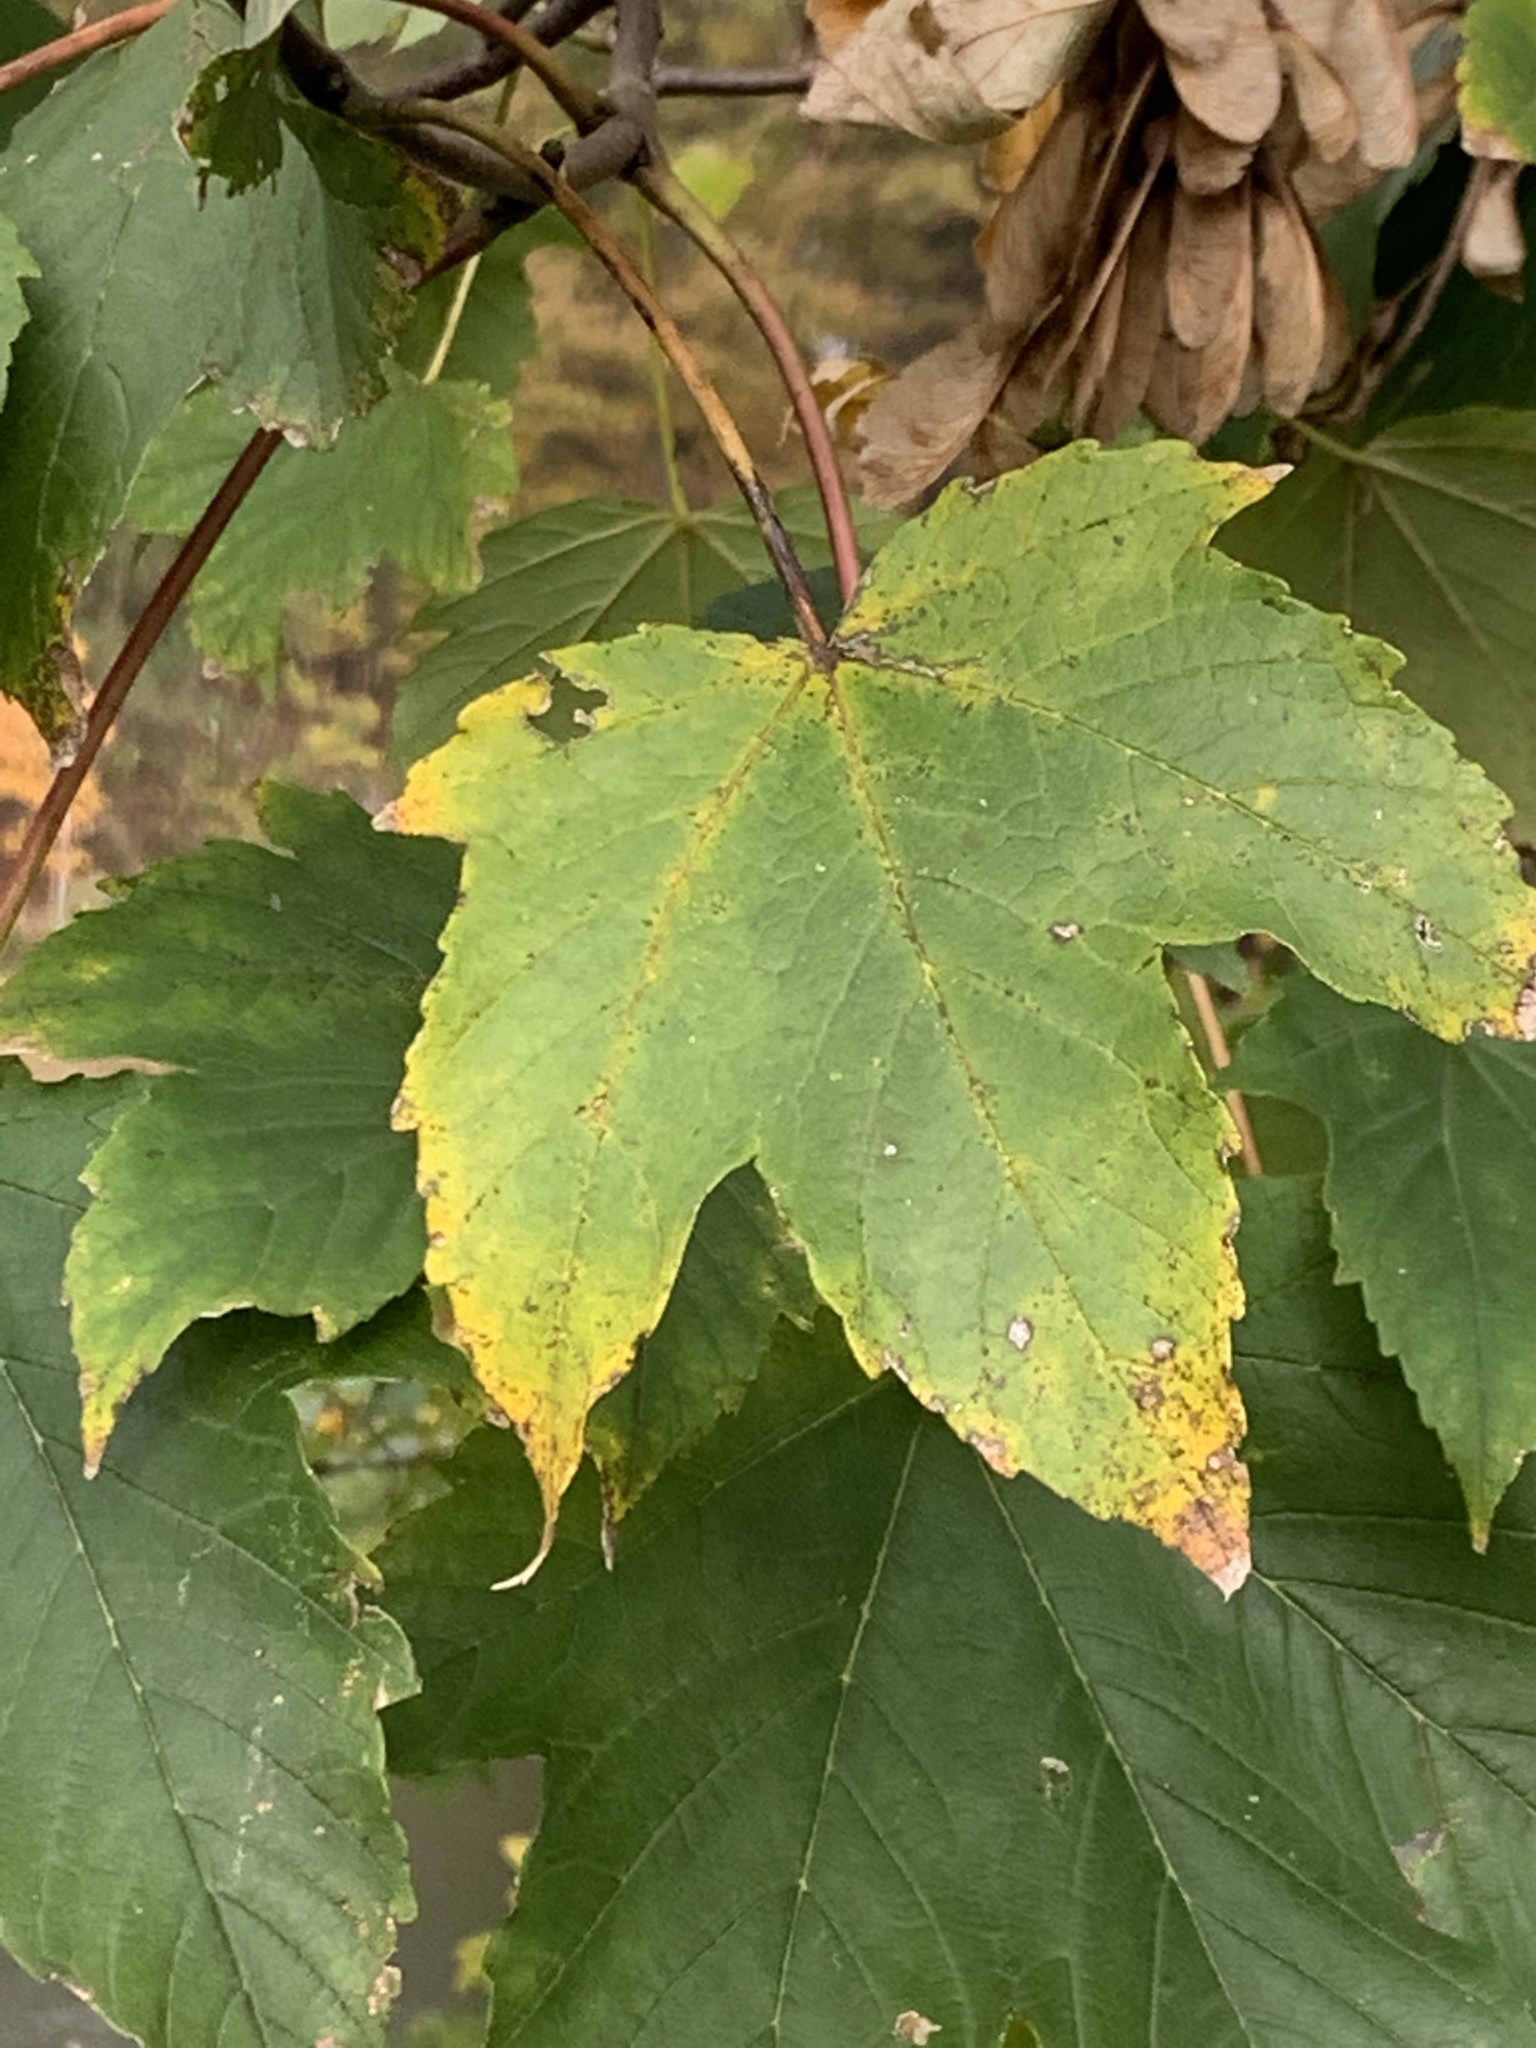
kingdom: Plantae
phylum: Tracheophyta
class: Magnoliopsida
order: Sapindales
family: Sapindaceae
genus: Acer
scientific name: Acer pseudoplatanus
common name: Sycamore
